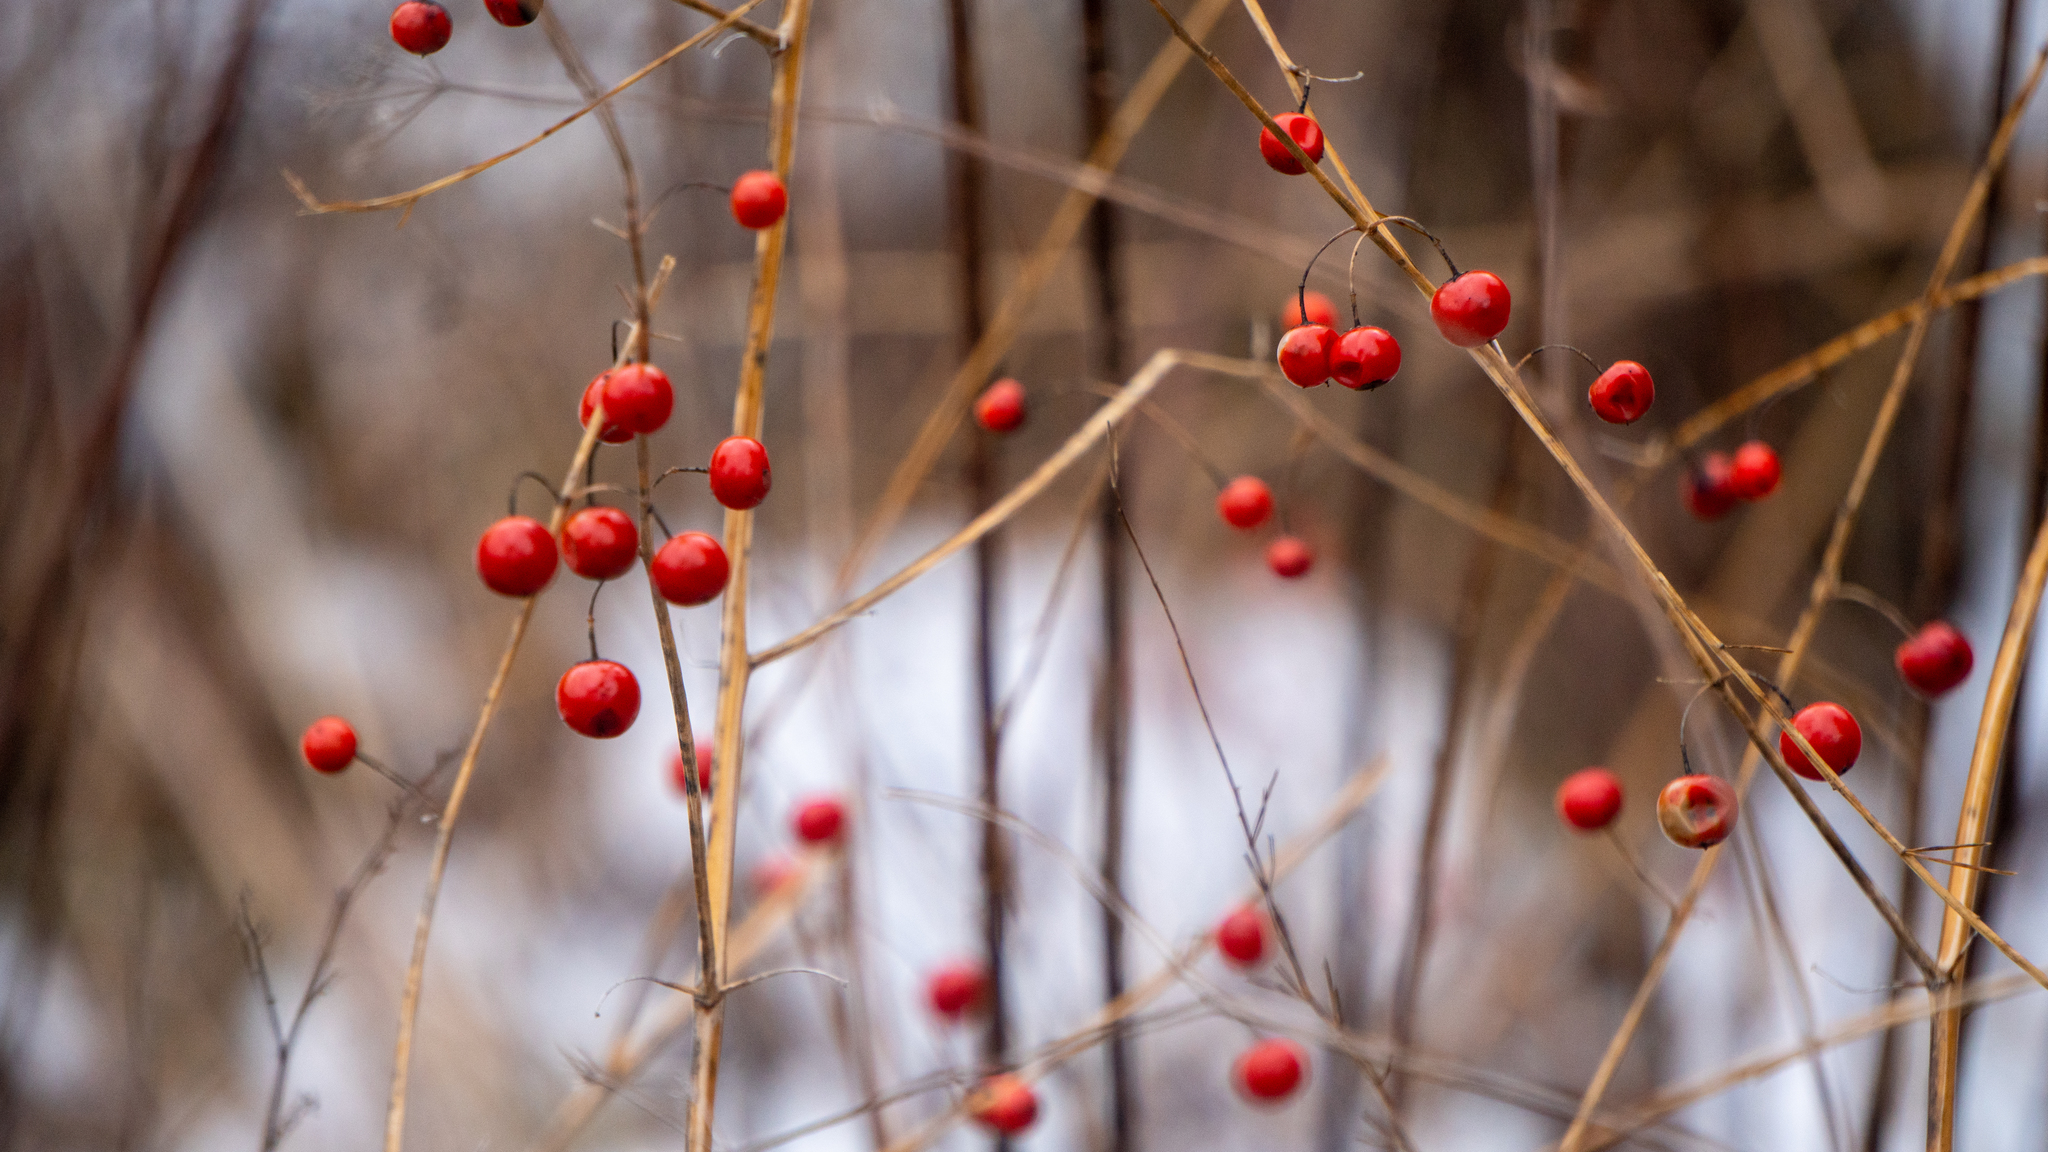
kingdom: Plantae
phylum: Tracheophyta
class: Liliopsida
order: Asparagales
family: Asparagaceae
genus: Asparagus
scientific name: Asparagus officinalis
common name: Garden asparagus
